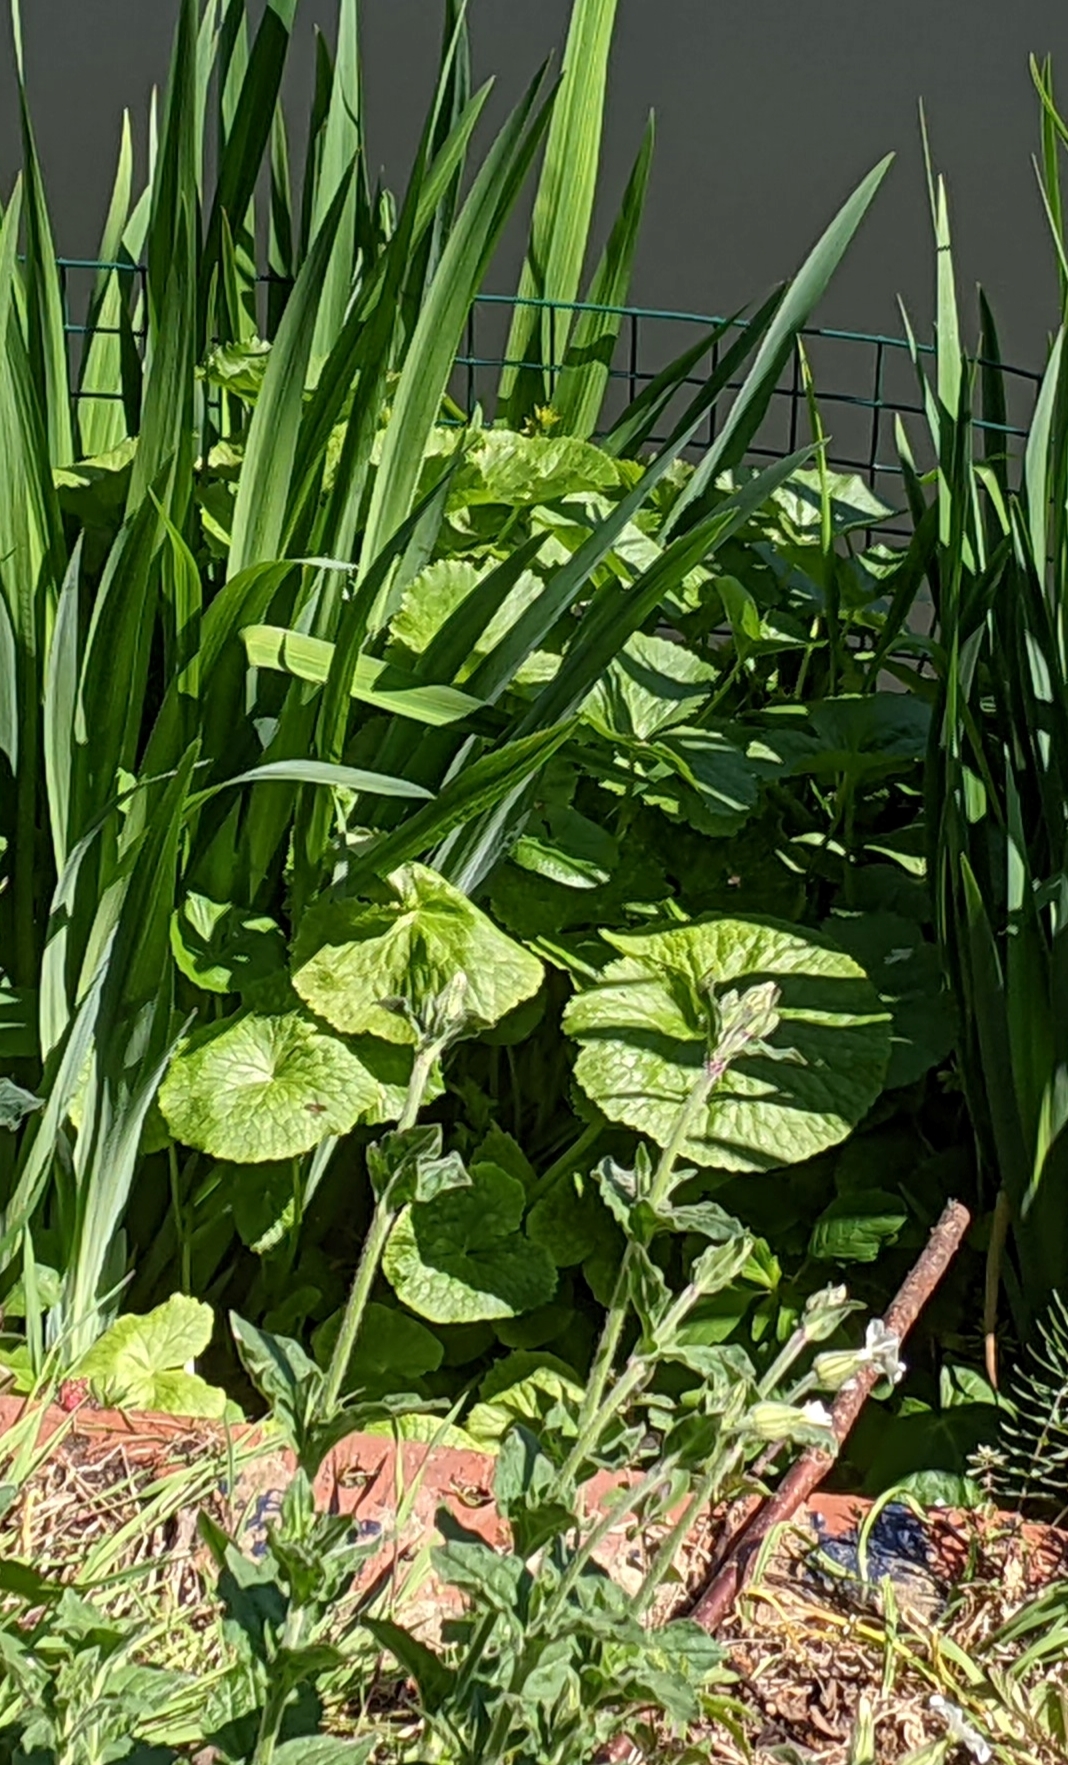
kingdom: Plantae
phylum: Tracheophyta
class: Magnoliopsida
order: Ranunculales
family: Ranunculaceae
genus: Caltha
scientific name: Caltha palustris
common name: Marsh marigold
